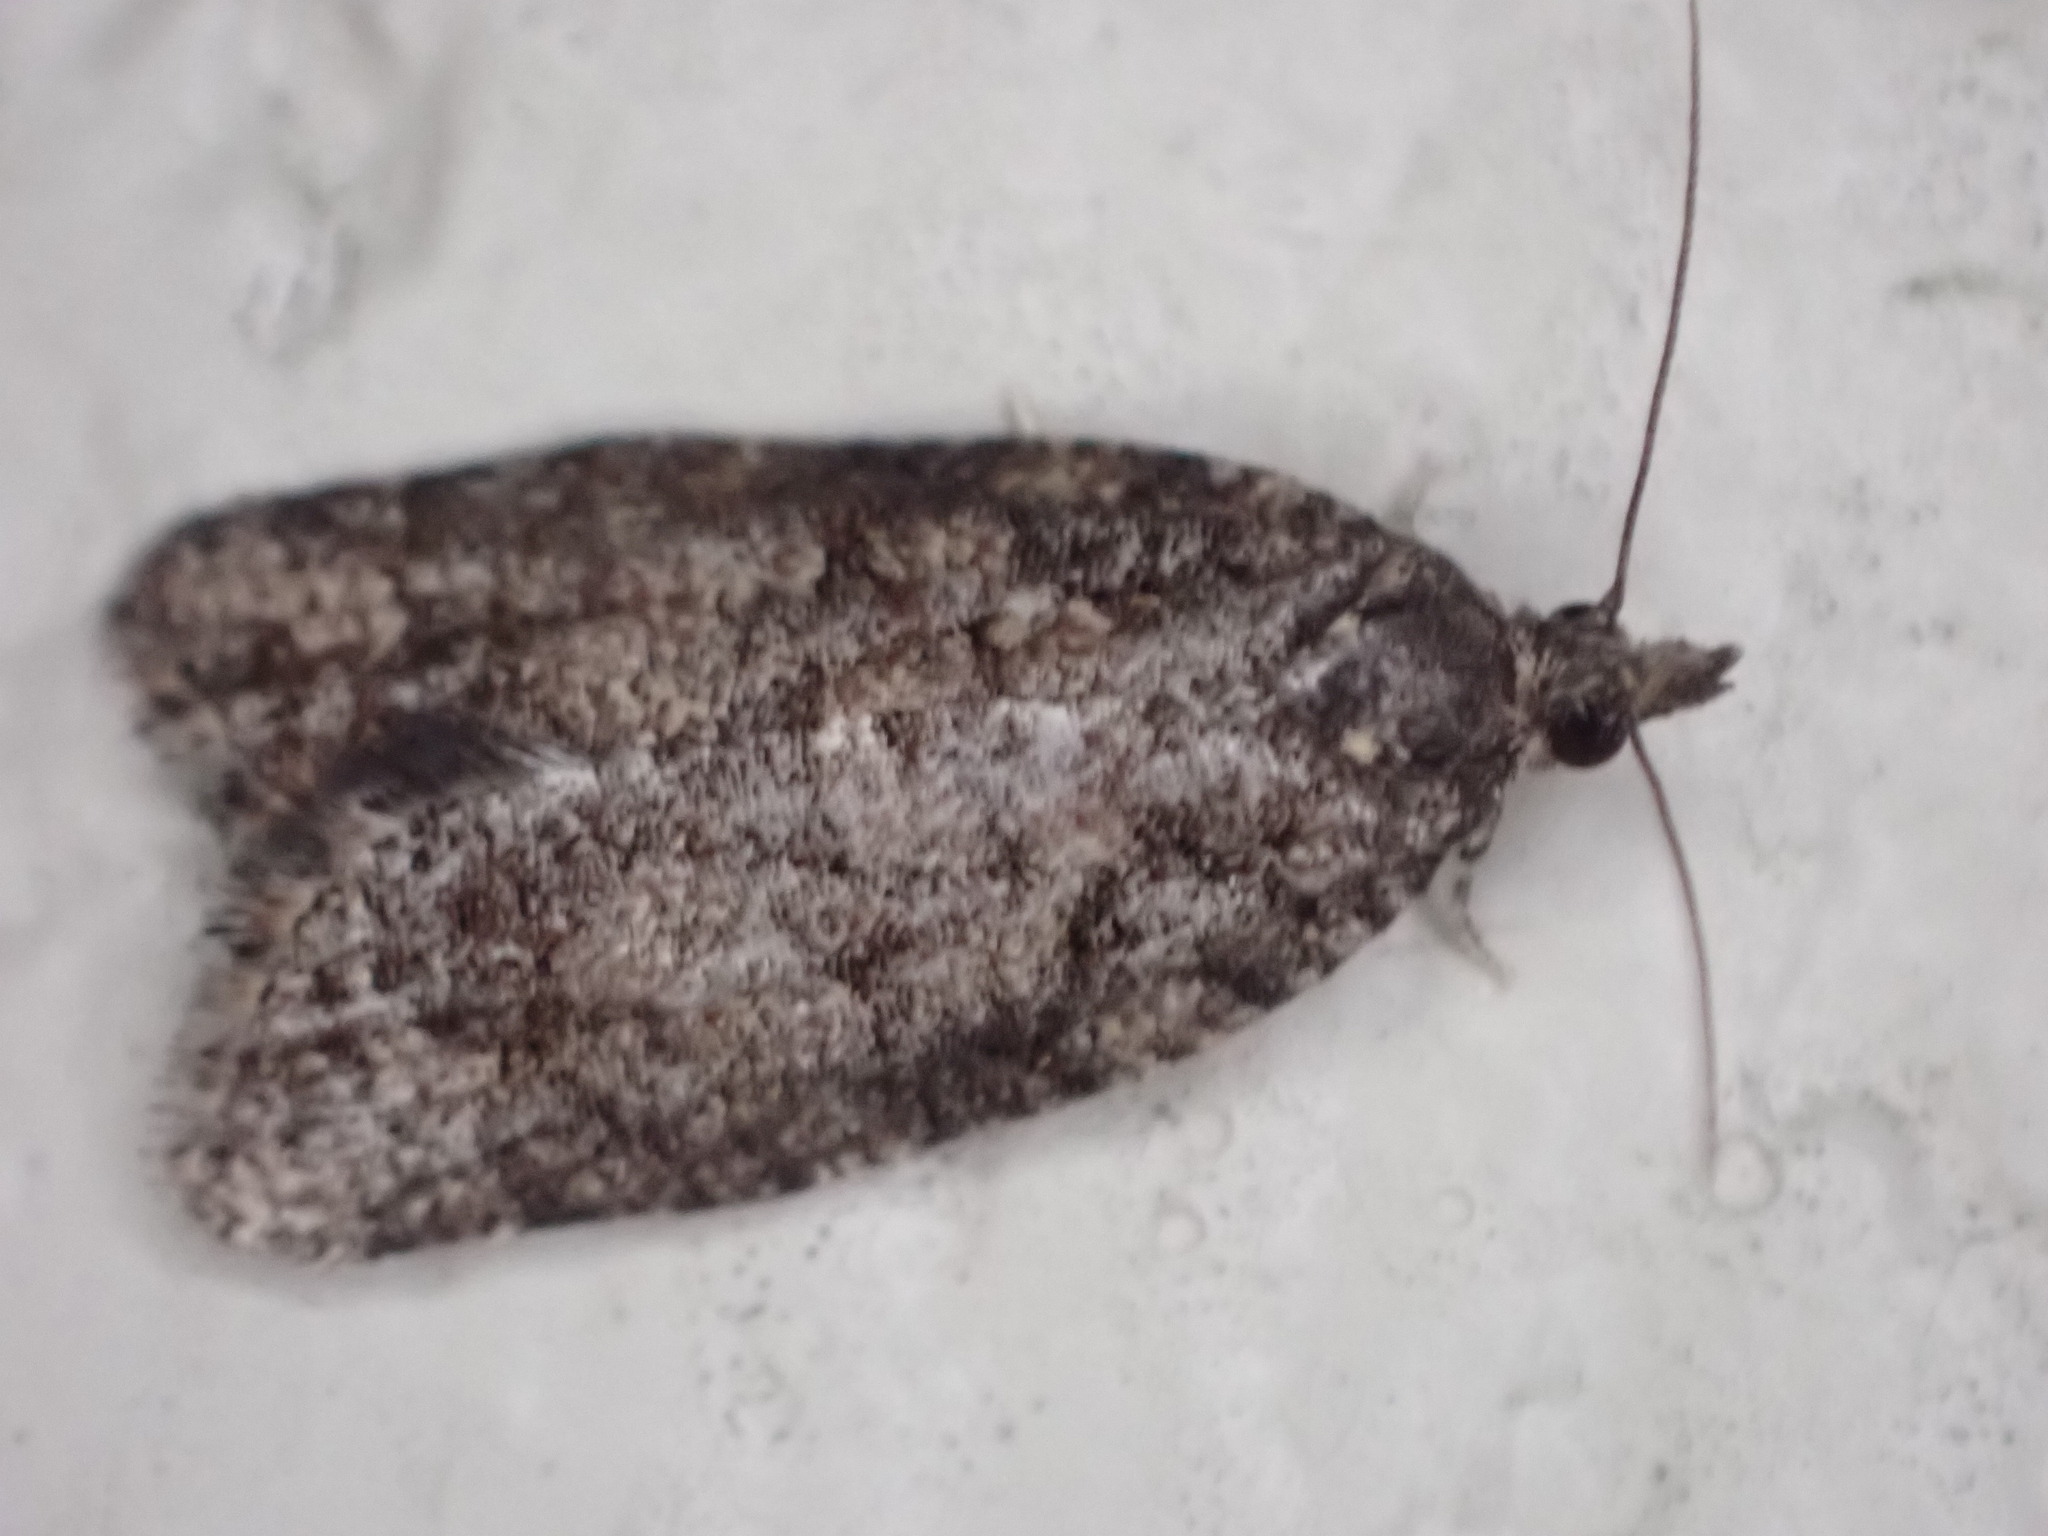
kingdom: Animalia
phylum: Arthropoda
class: Insecta
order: Lepidoptera
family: Tortricidae
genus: Capua
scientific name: Capua intractana
